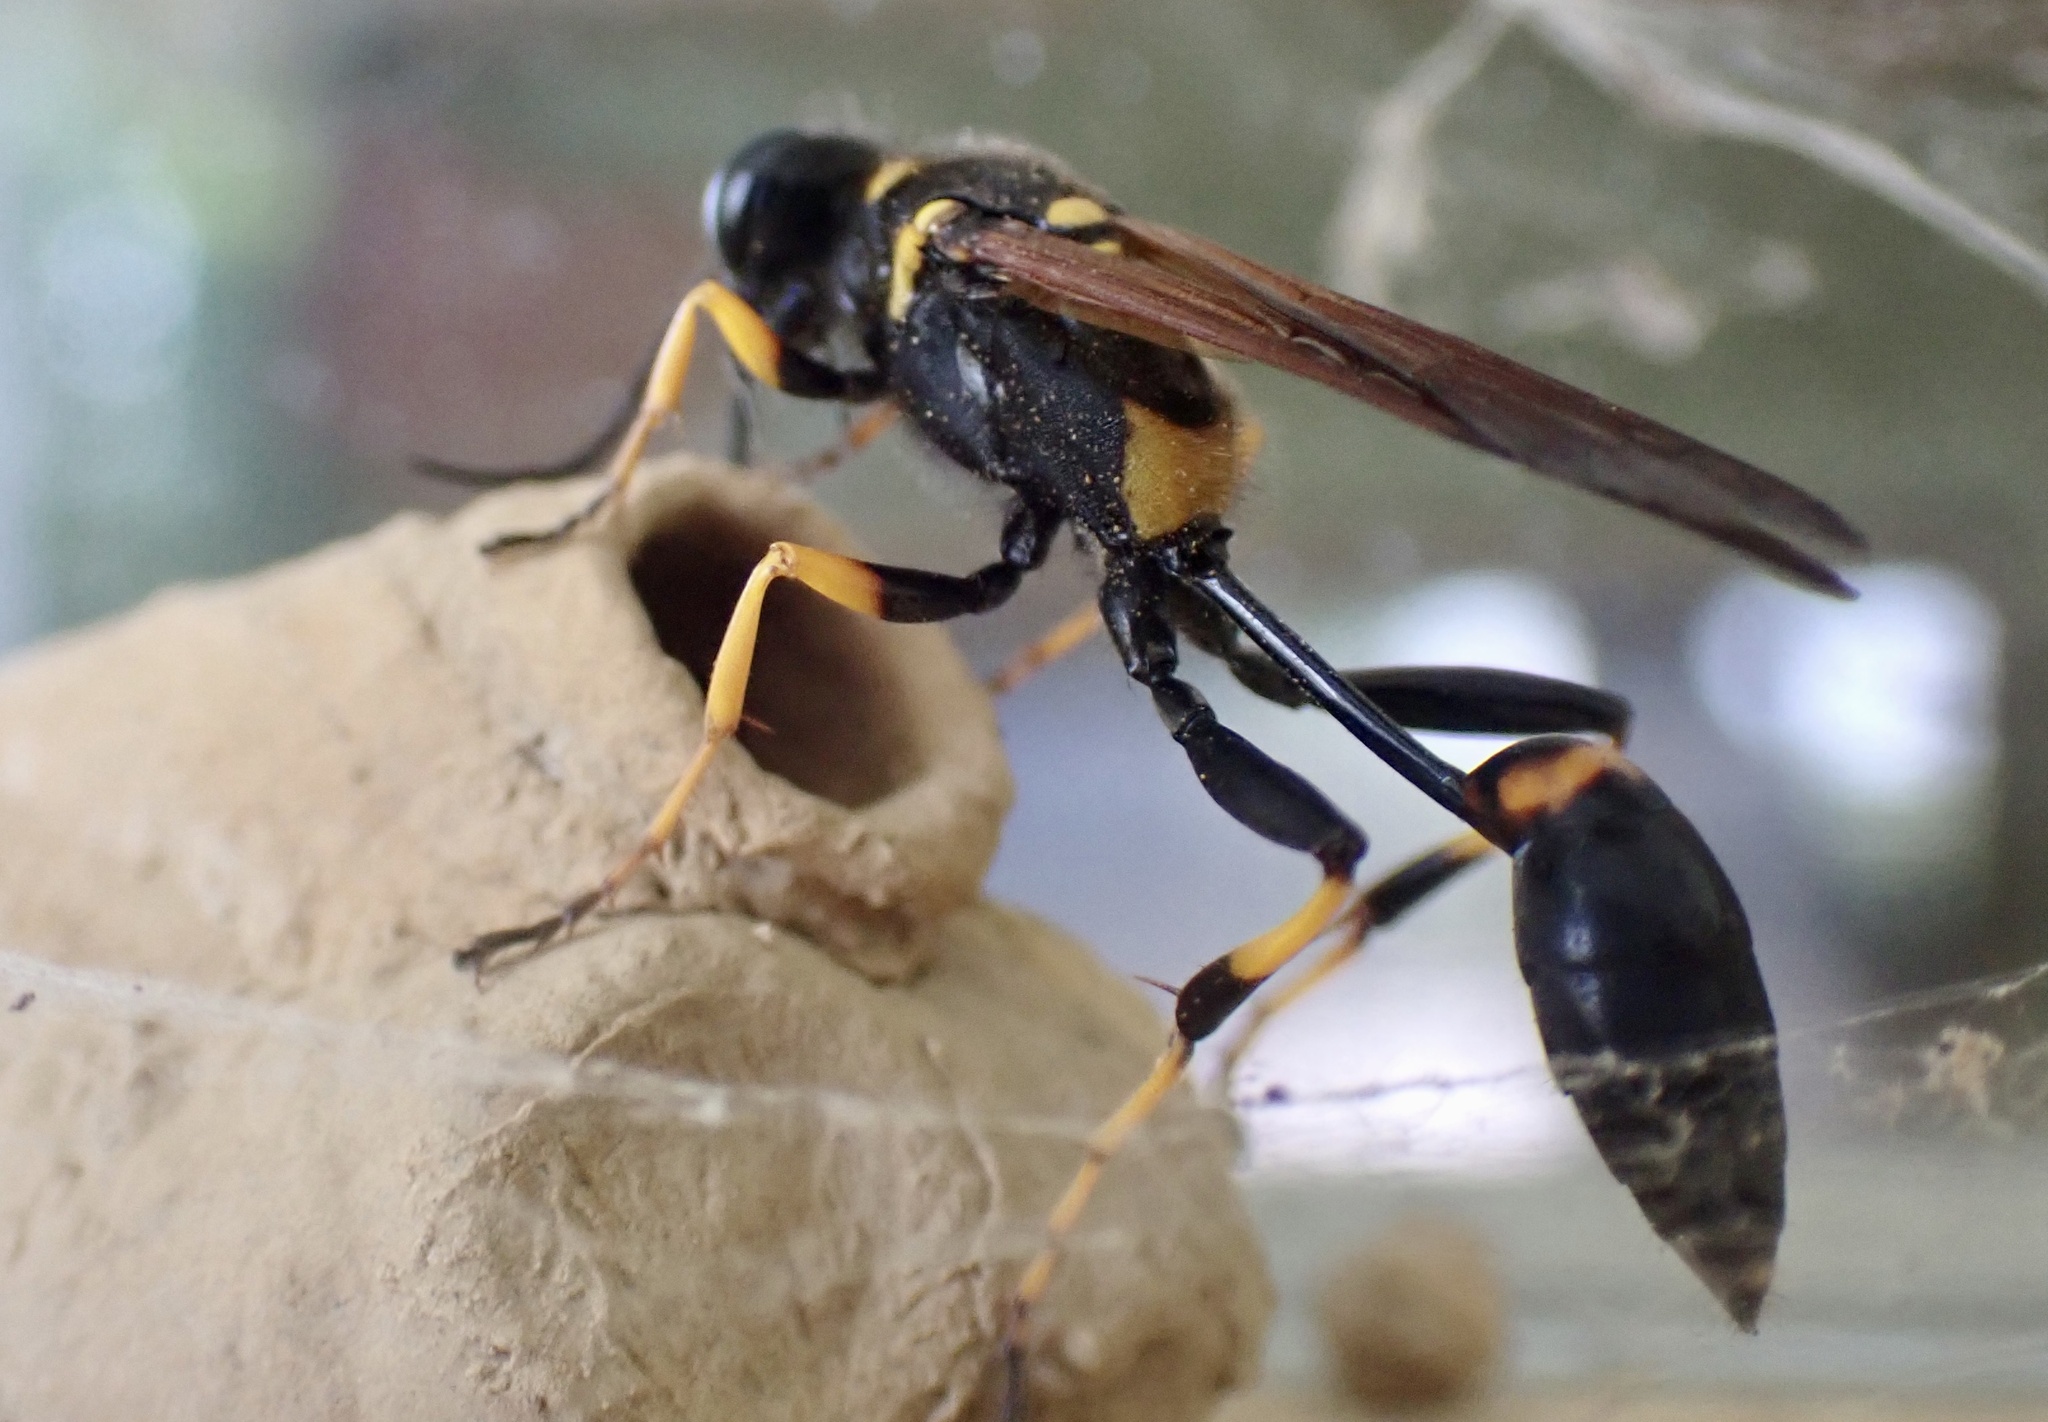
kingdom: Animalia
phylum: Arthropoda
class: Insecta
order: Hymenoptera
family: Sphecidae
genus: Sceliphron
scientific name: Sceliphron caementarium
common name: Mud dauber
